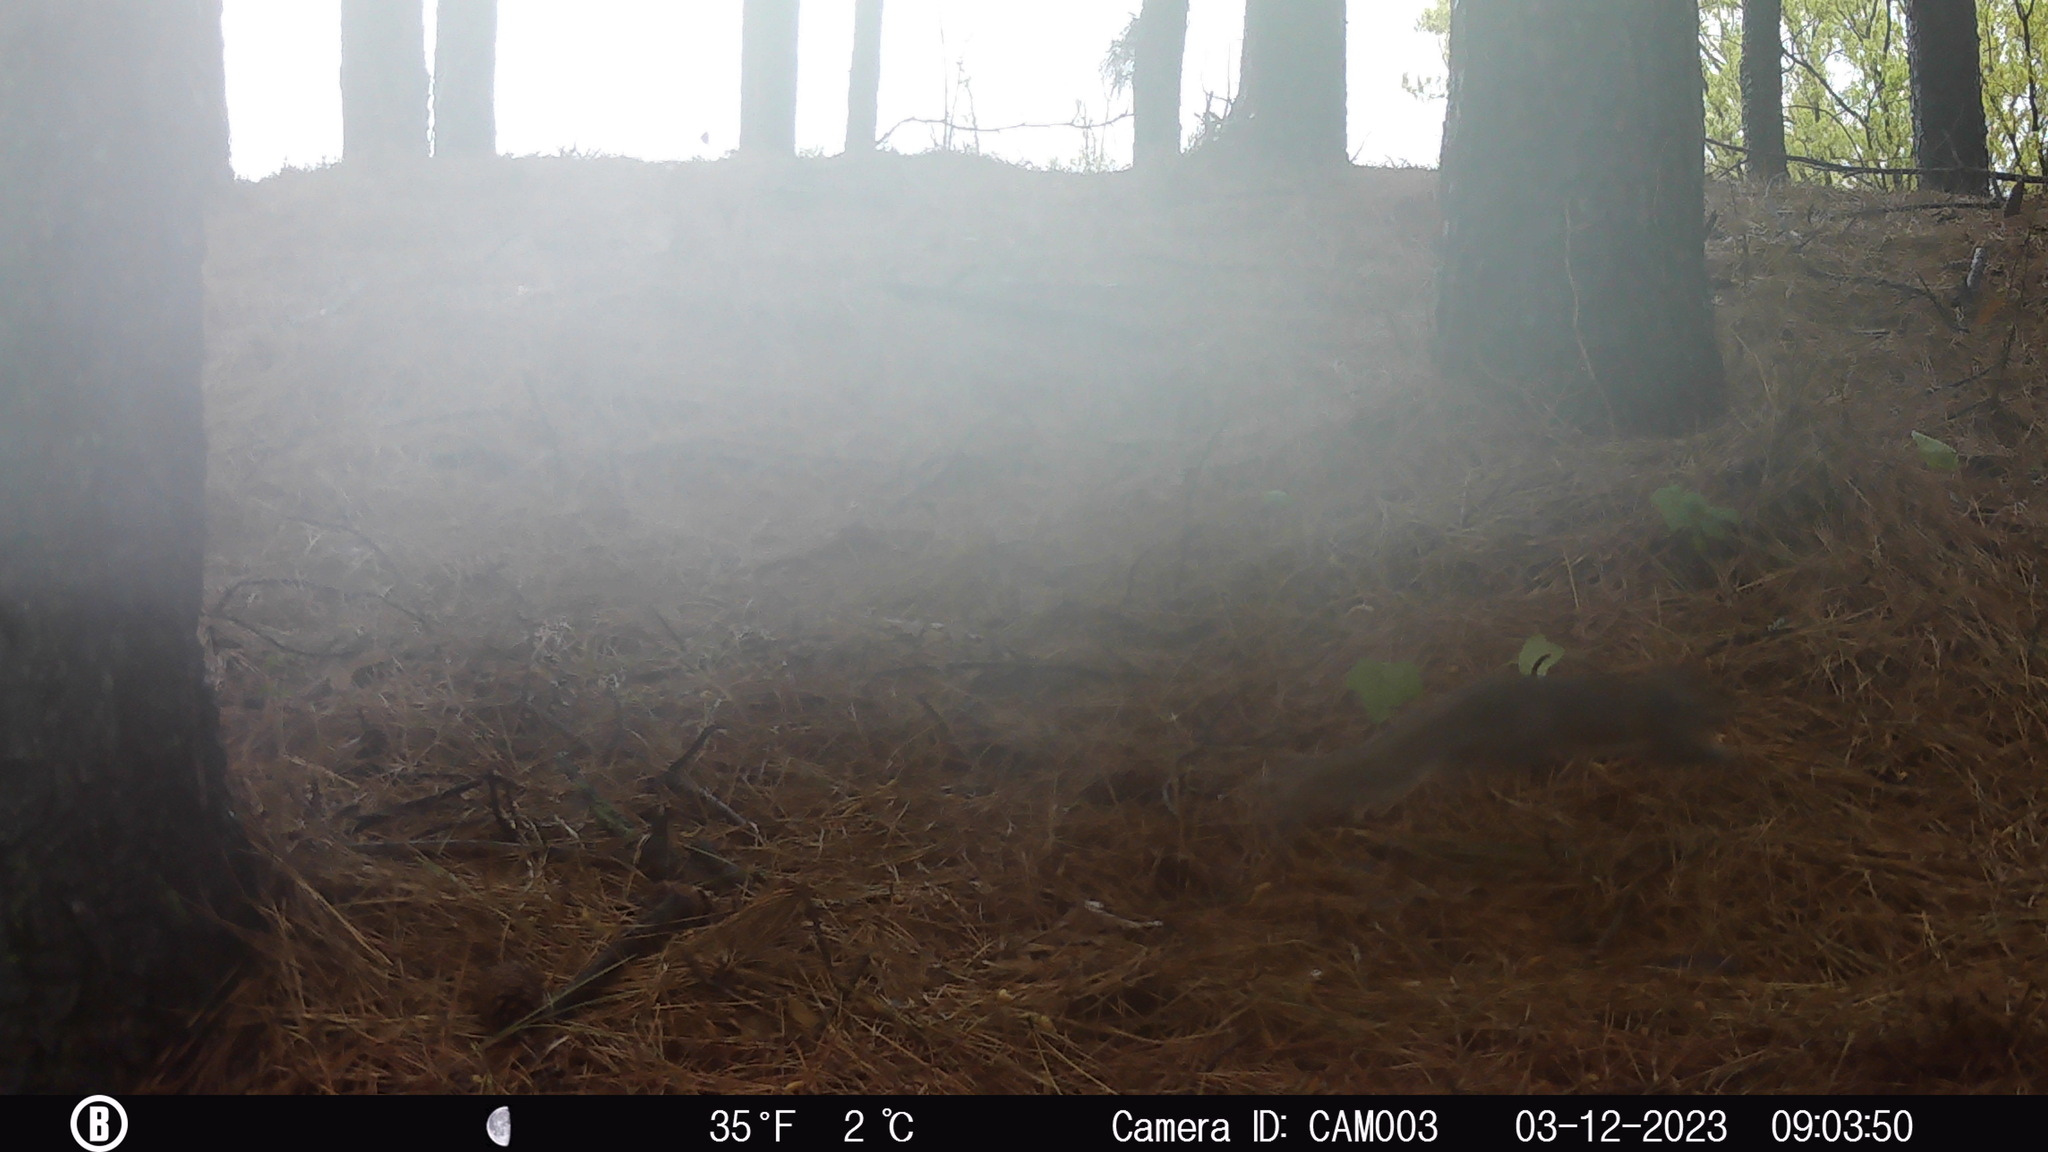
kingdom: Animalia
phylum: Chordata
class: Mammalia
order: Rodentia
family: Sciuridae
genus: Sciurus
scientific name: Sciurus carolinensis
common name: Eastern gray squirrel
